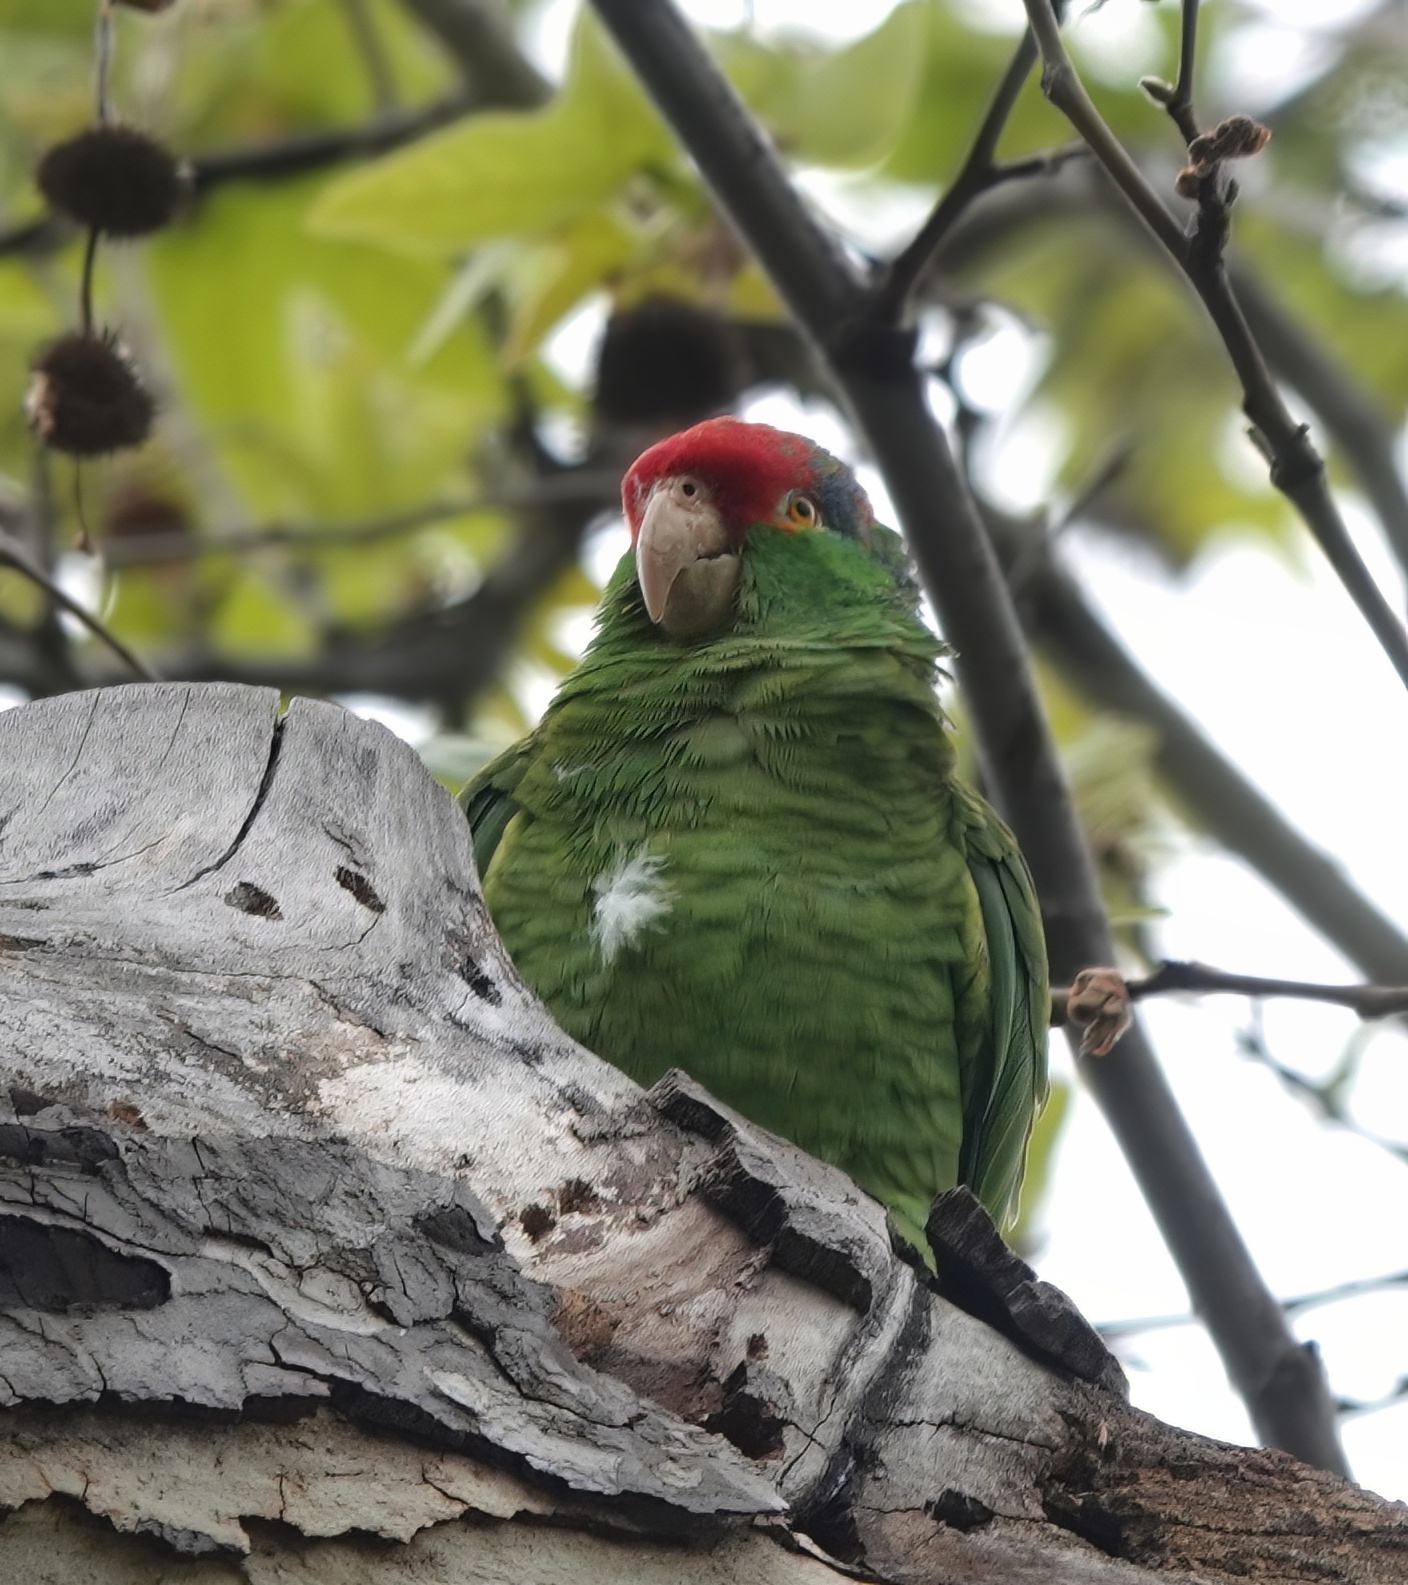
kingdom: Animalia
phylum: Chordata
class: Aves
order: Psittaciformes
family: Psittacidae
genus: Amazona
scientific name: Amazona viridigenalis
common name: Red-crowned amazon
